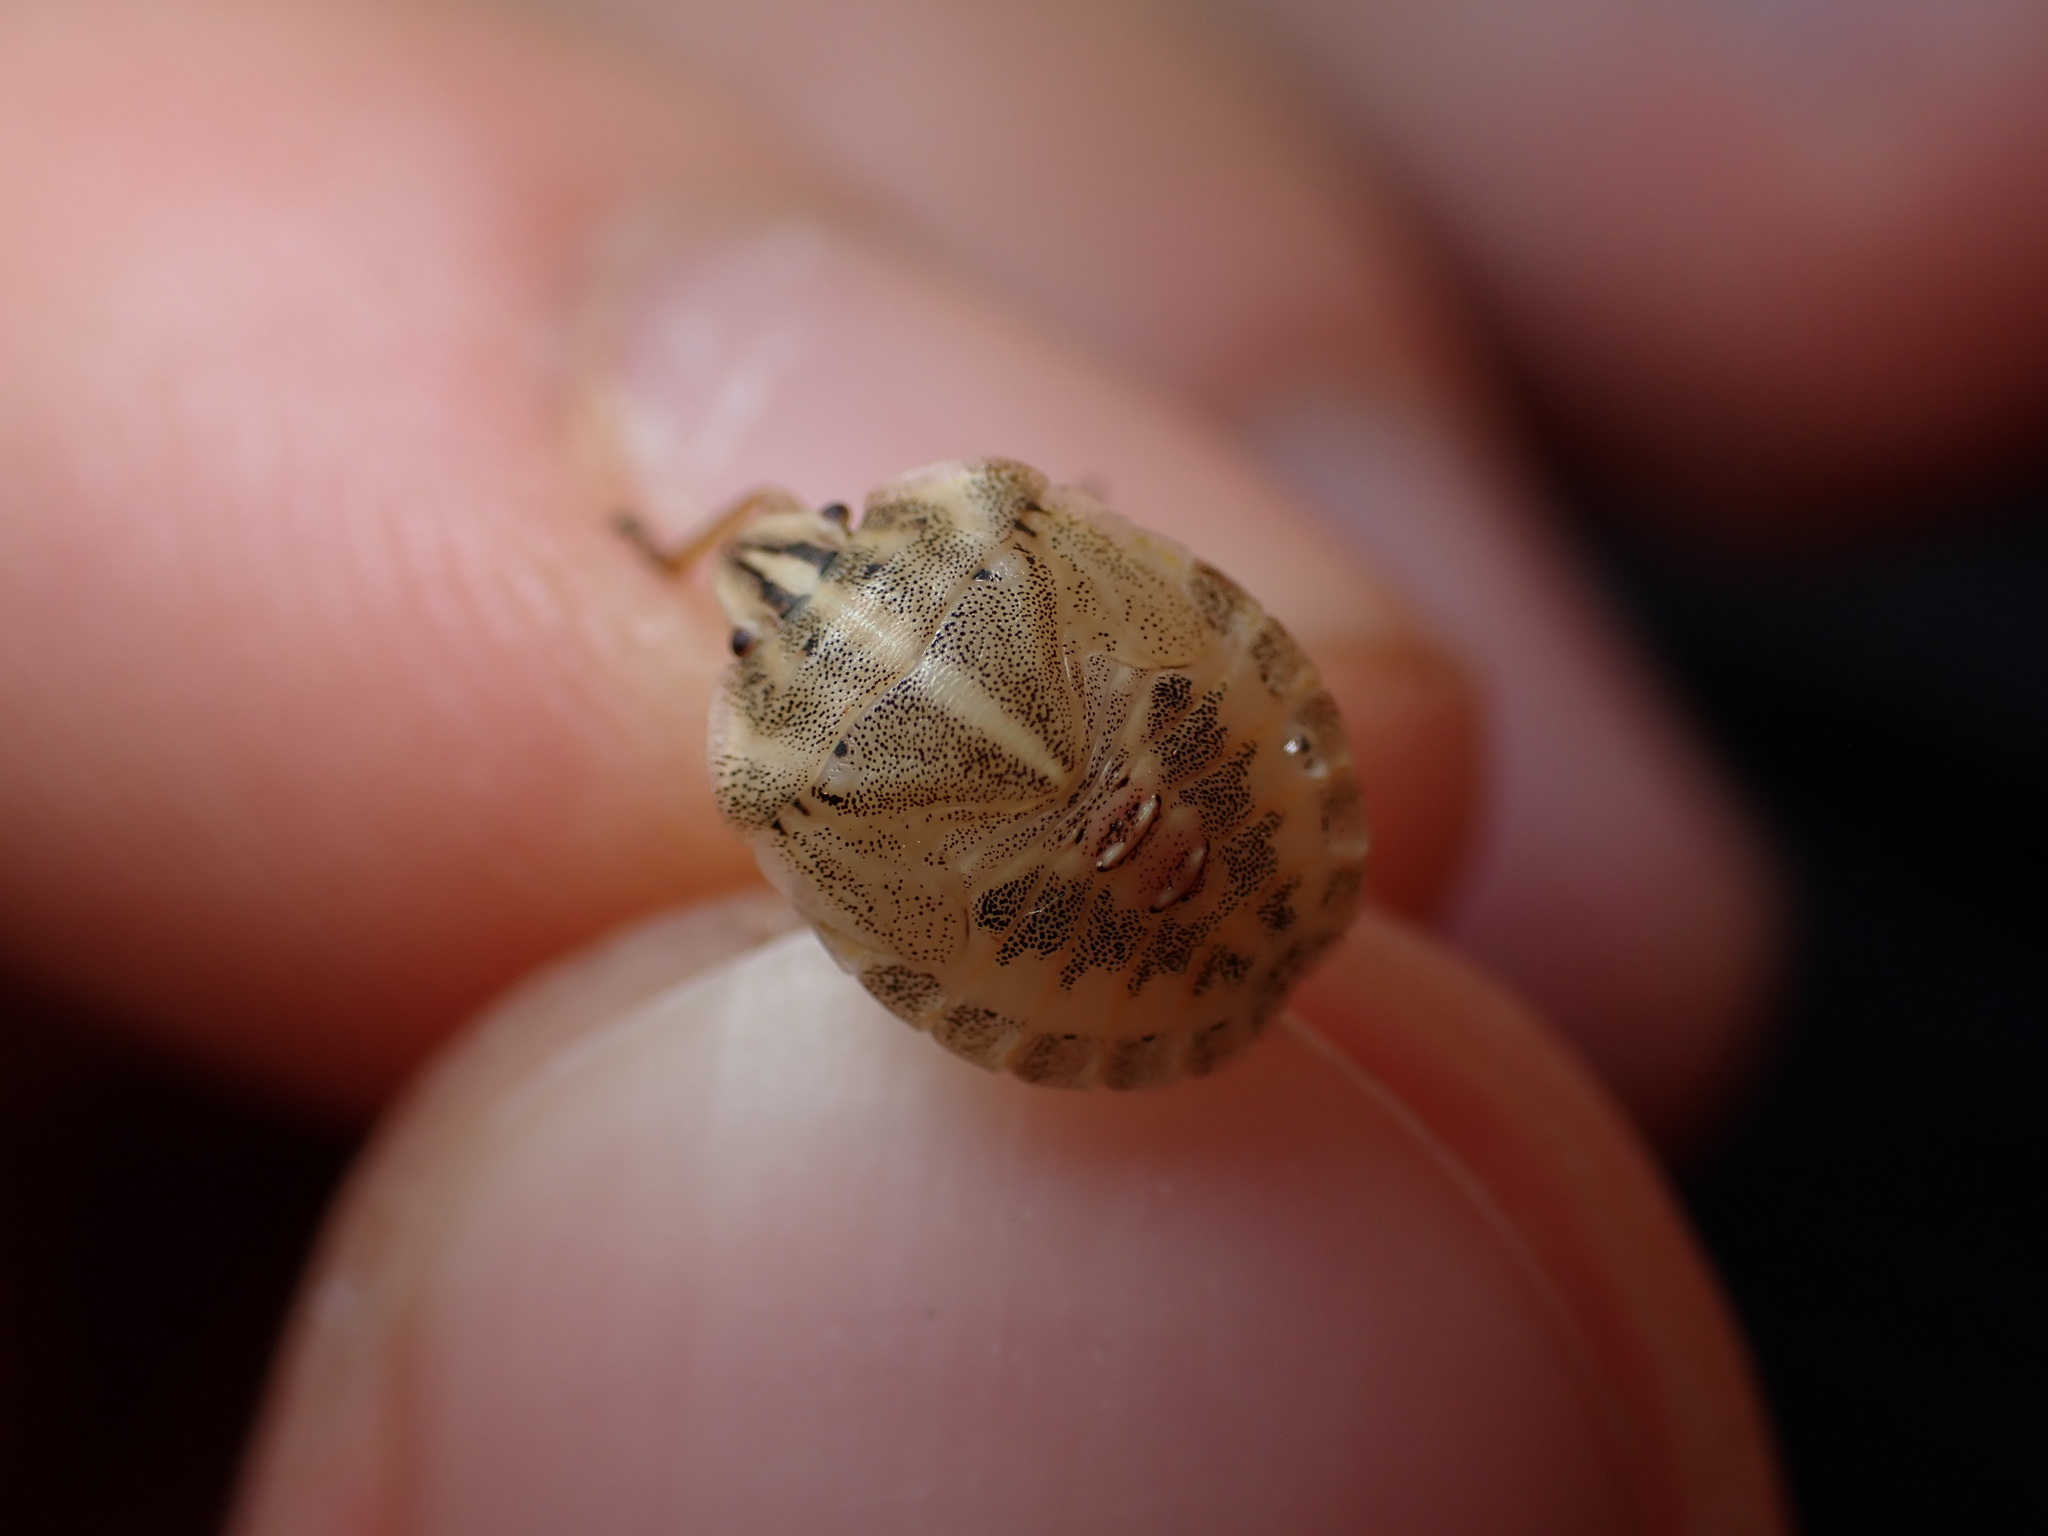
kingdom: Animalia
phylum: Arthropoda
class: Insecta
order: Hemiptera
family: Pentatomidae
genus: Graphosoma
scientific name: Graphosoma italicum
